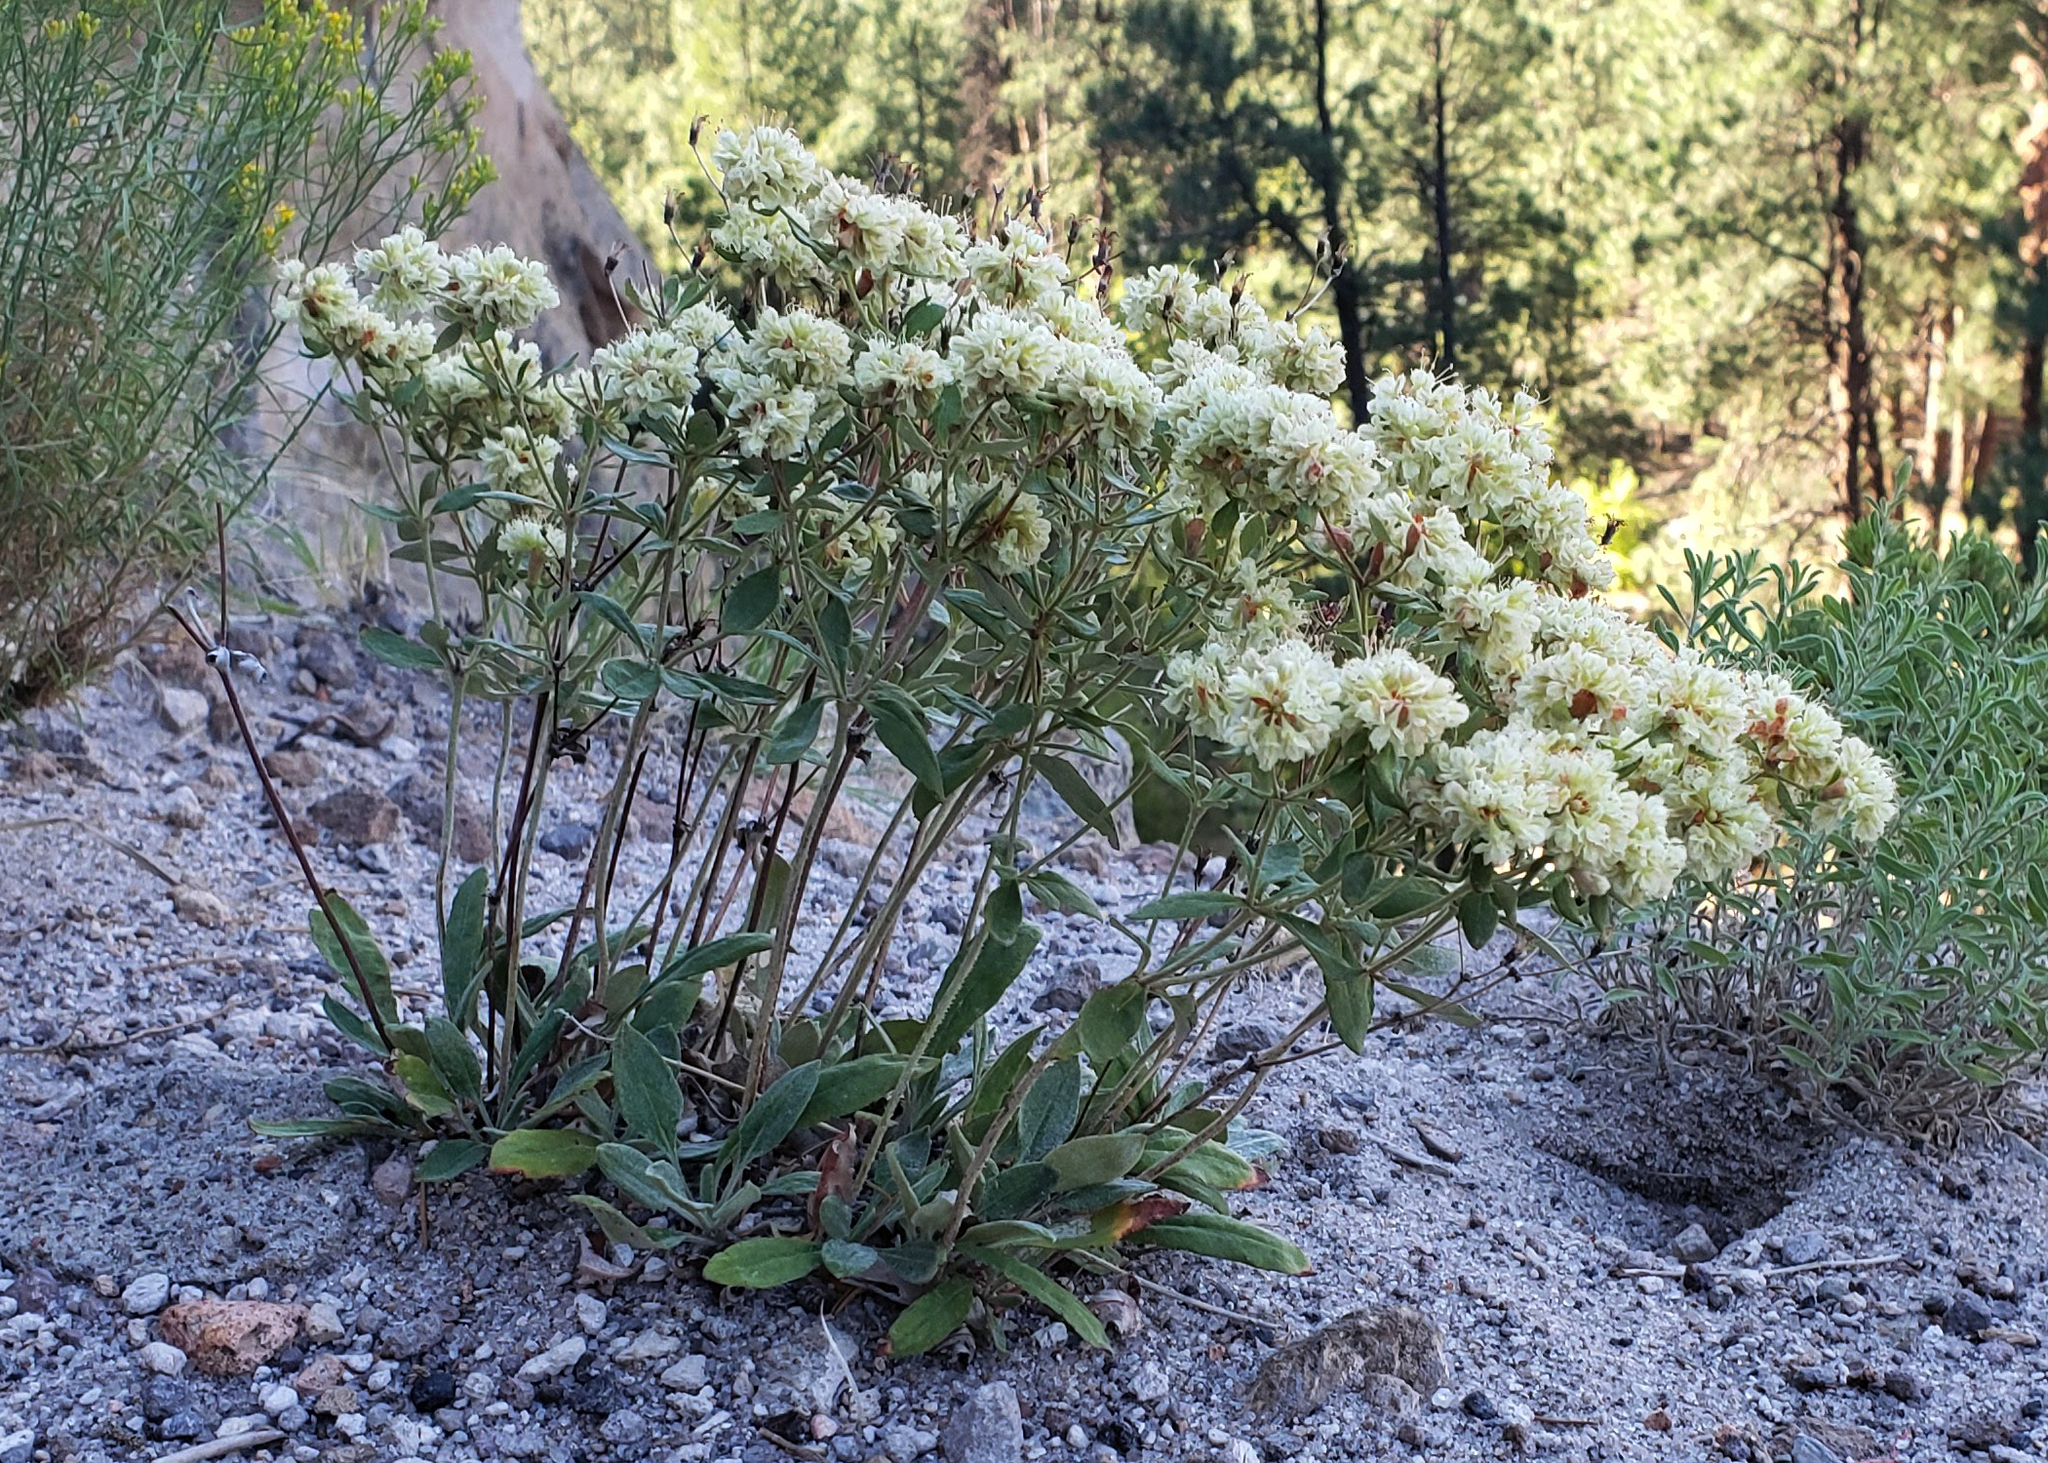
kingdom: Plantae
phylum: Tracheophyta
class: Magnoliopsida
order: Caryophyllales
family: Polygonaceae
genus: Eriogonum
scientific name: Eriogonum jamesii
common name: Antelope-sage
